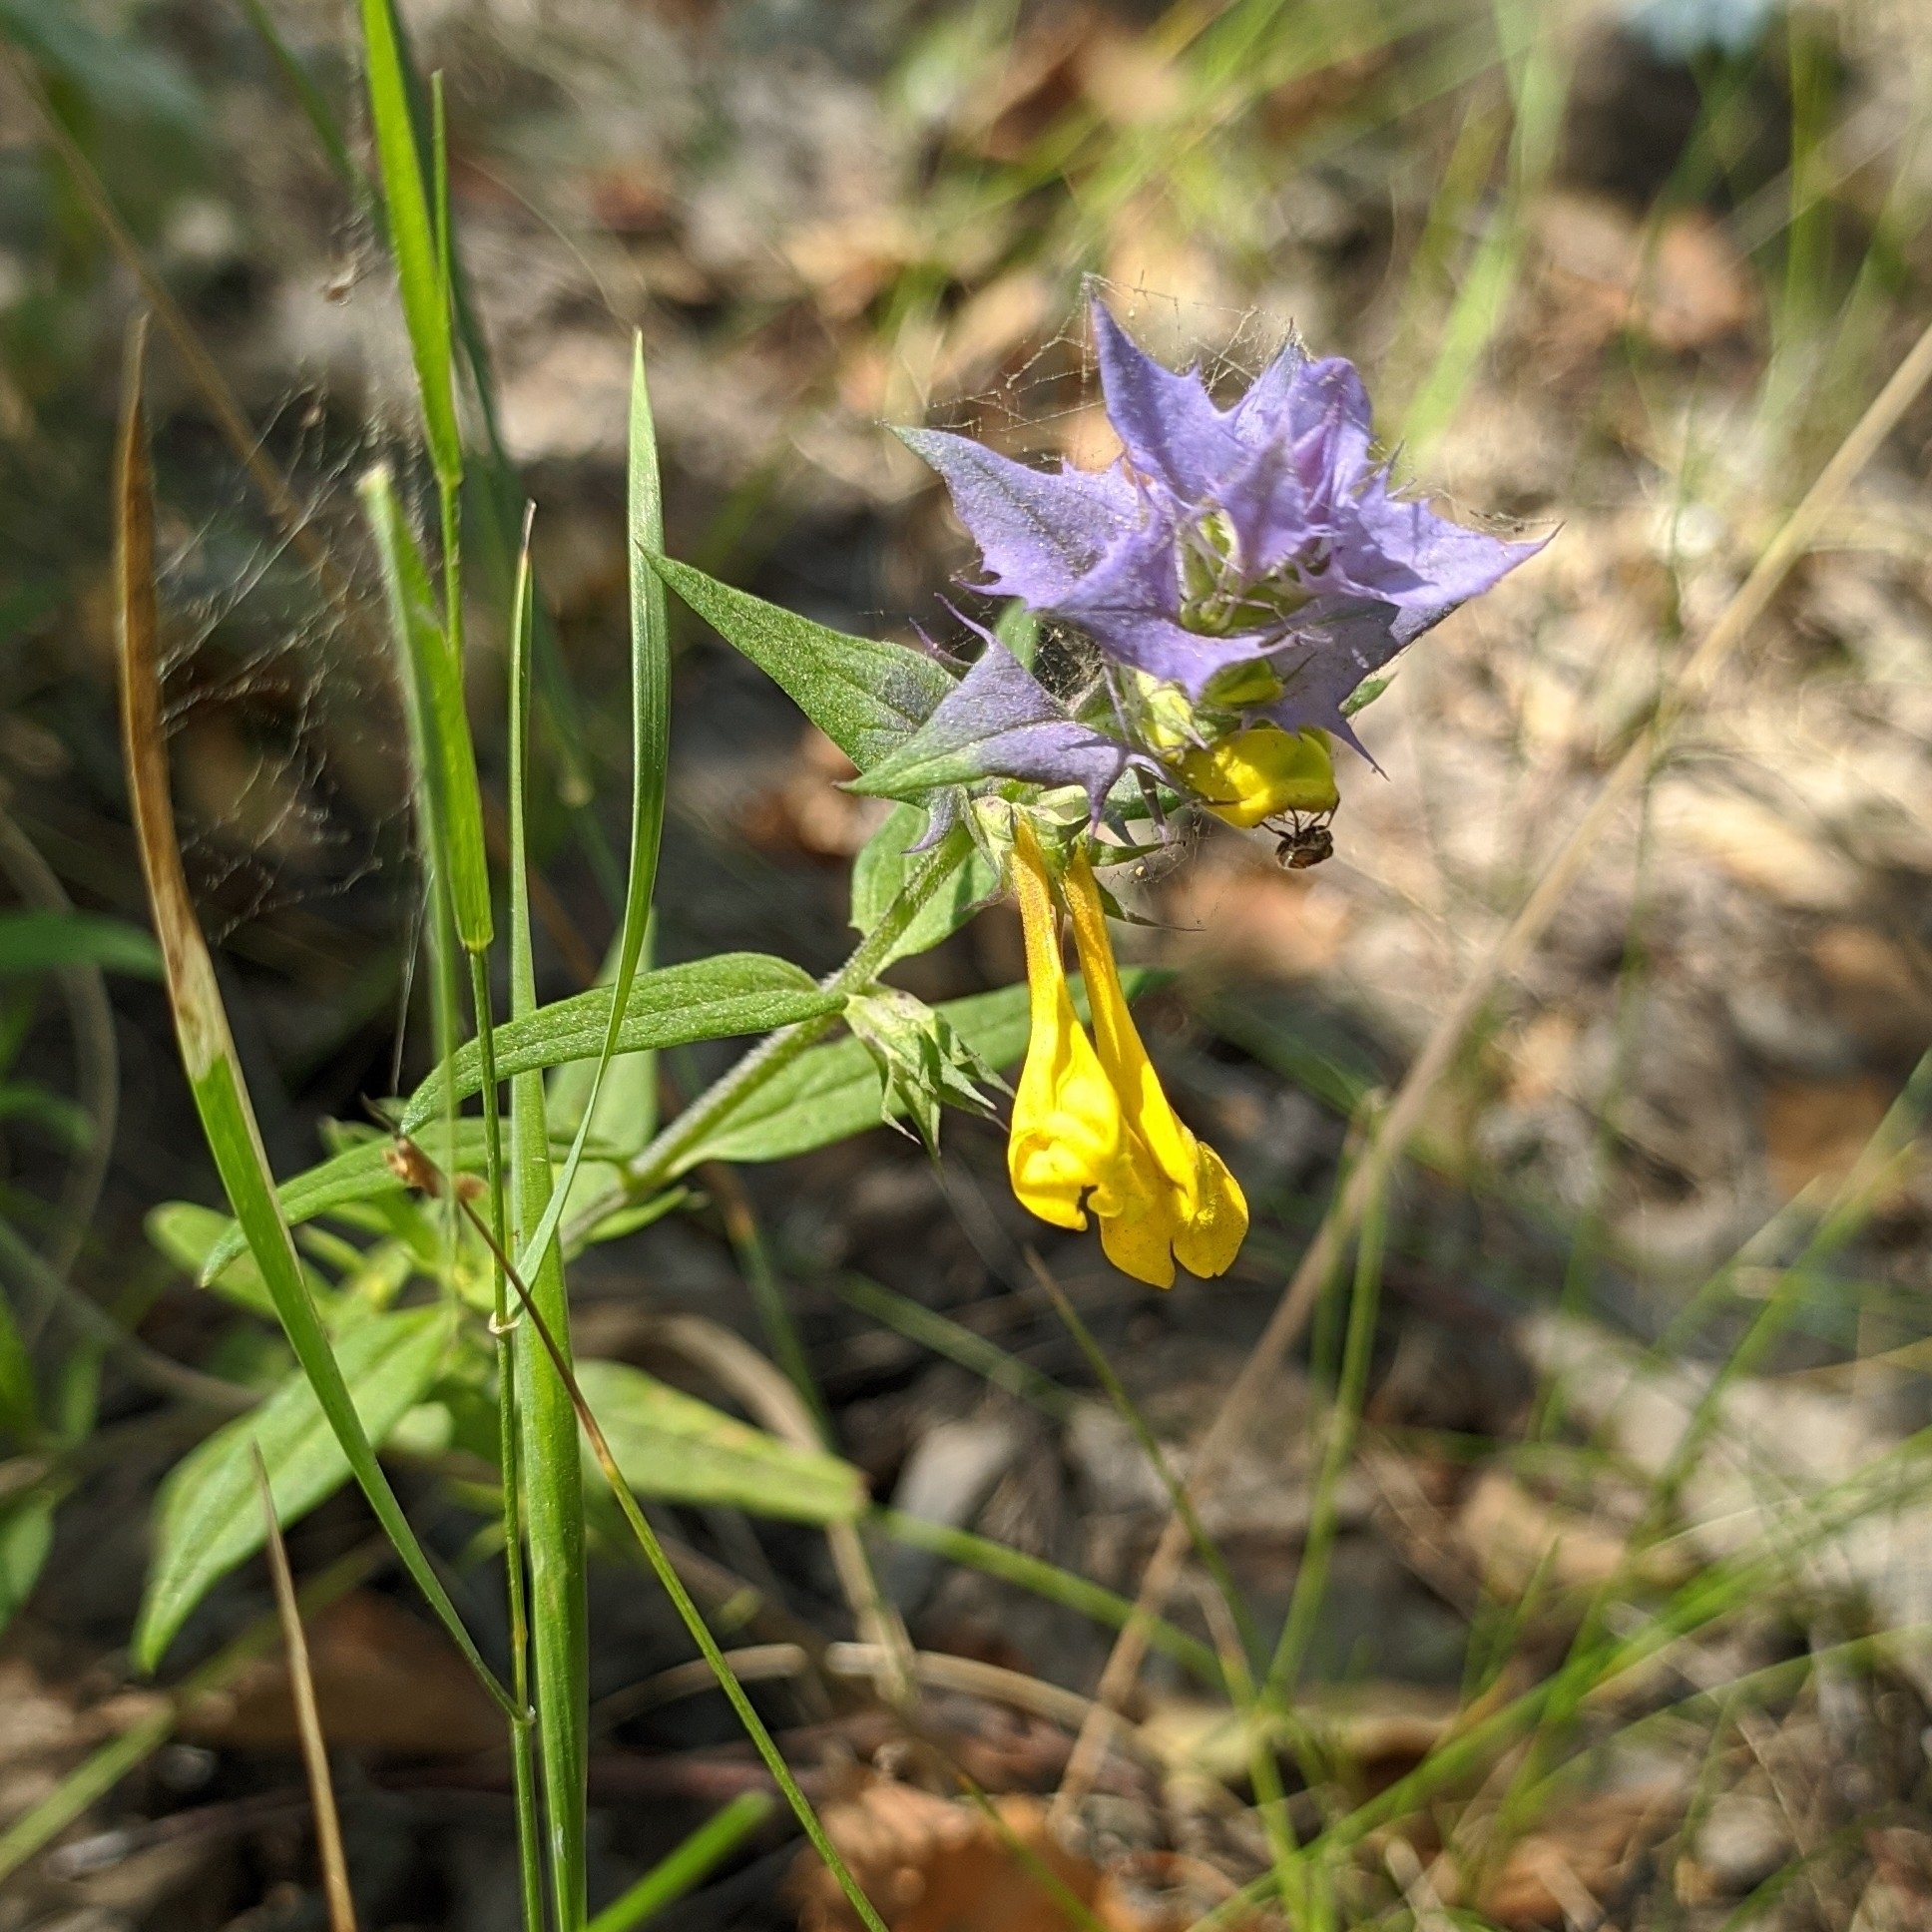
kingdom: Plantae
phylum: Tracheophyta
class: Magnoliopsida
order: Lamiales
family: Orobanchaceae
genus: Melampyrum
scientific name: Melampyrum nemorosum
